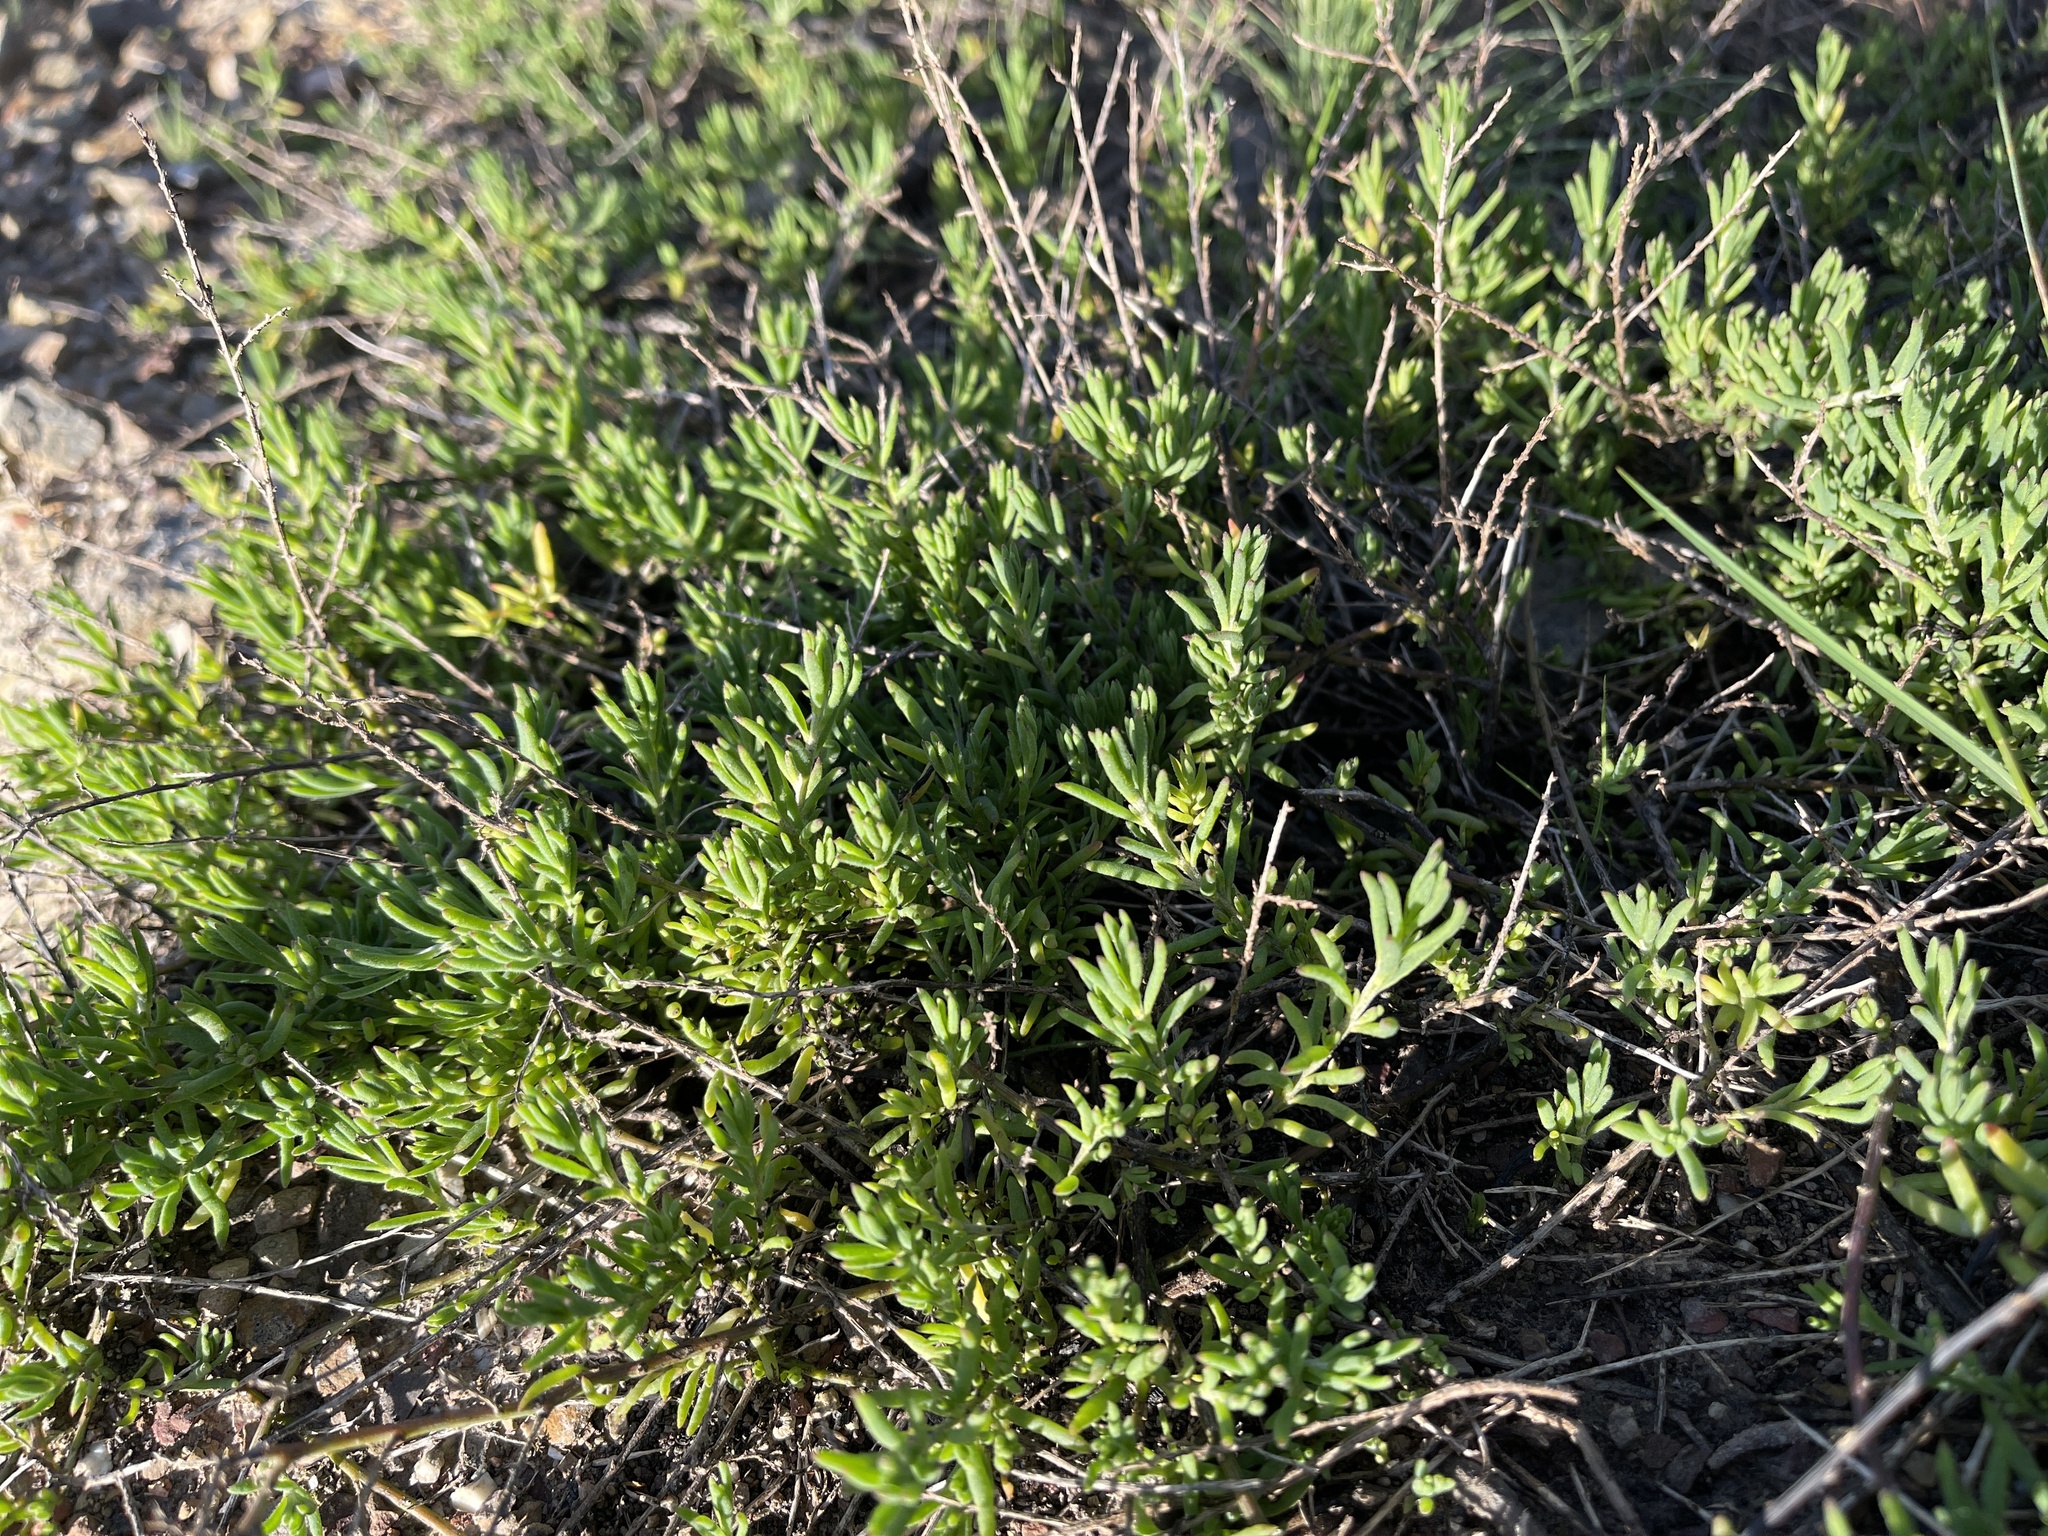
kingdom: Plantae
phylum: Tracheophyta
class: Magnoliopsida
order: Caryophyllales
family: Amaranthaceae
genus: Enchylaena
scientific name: Enchylaena tomentosa
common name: Ruby saltbush
